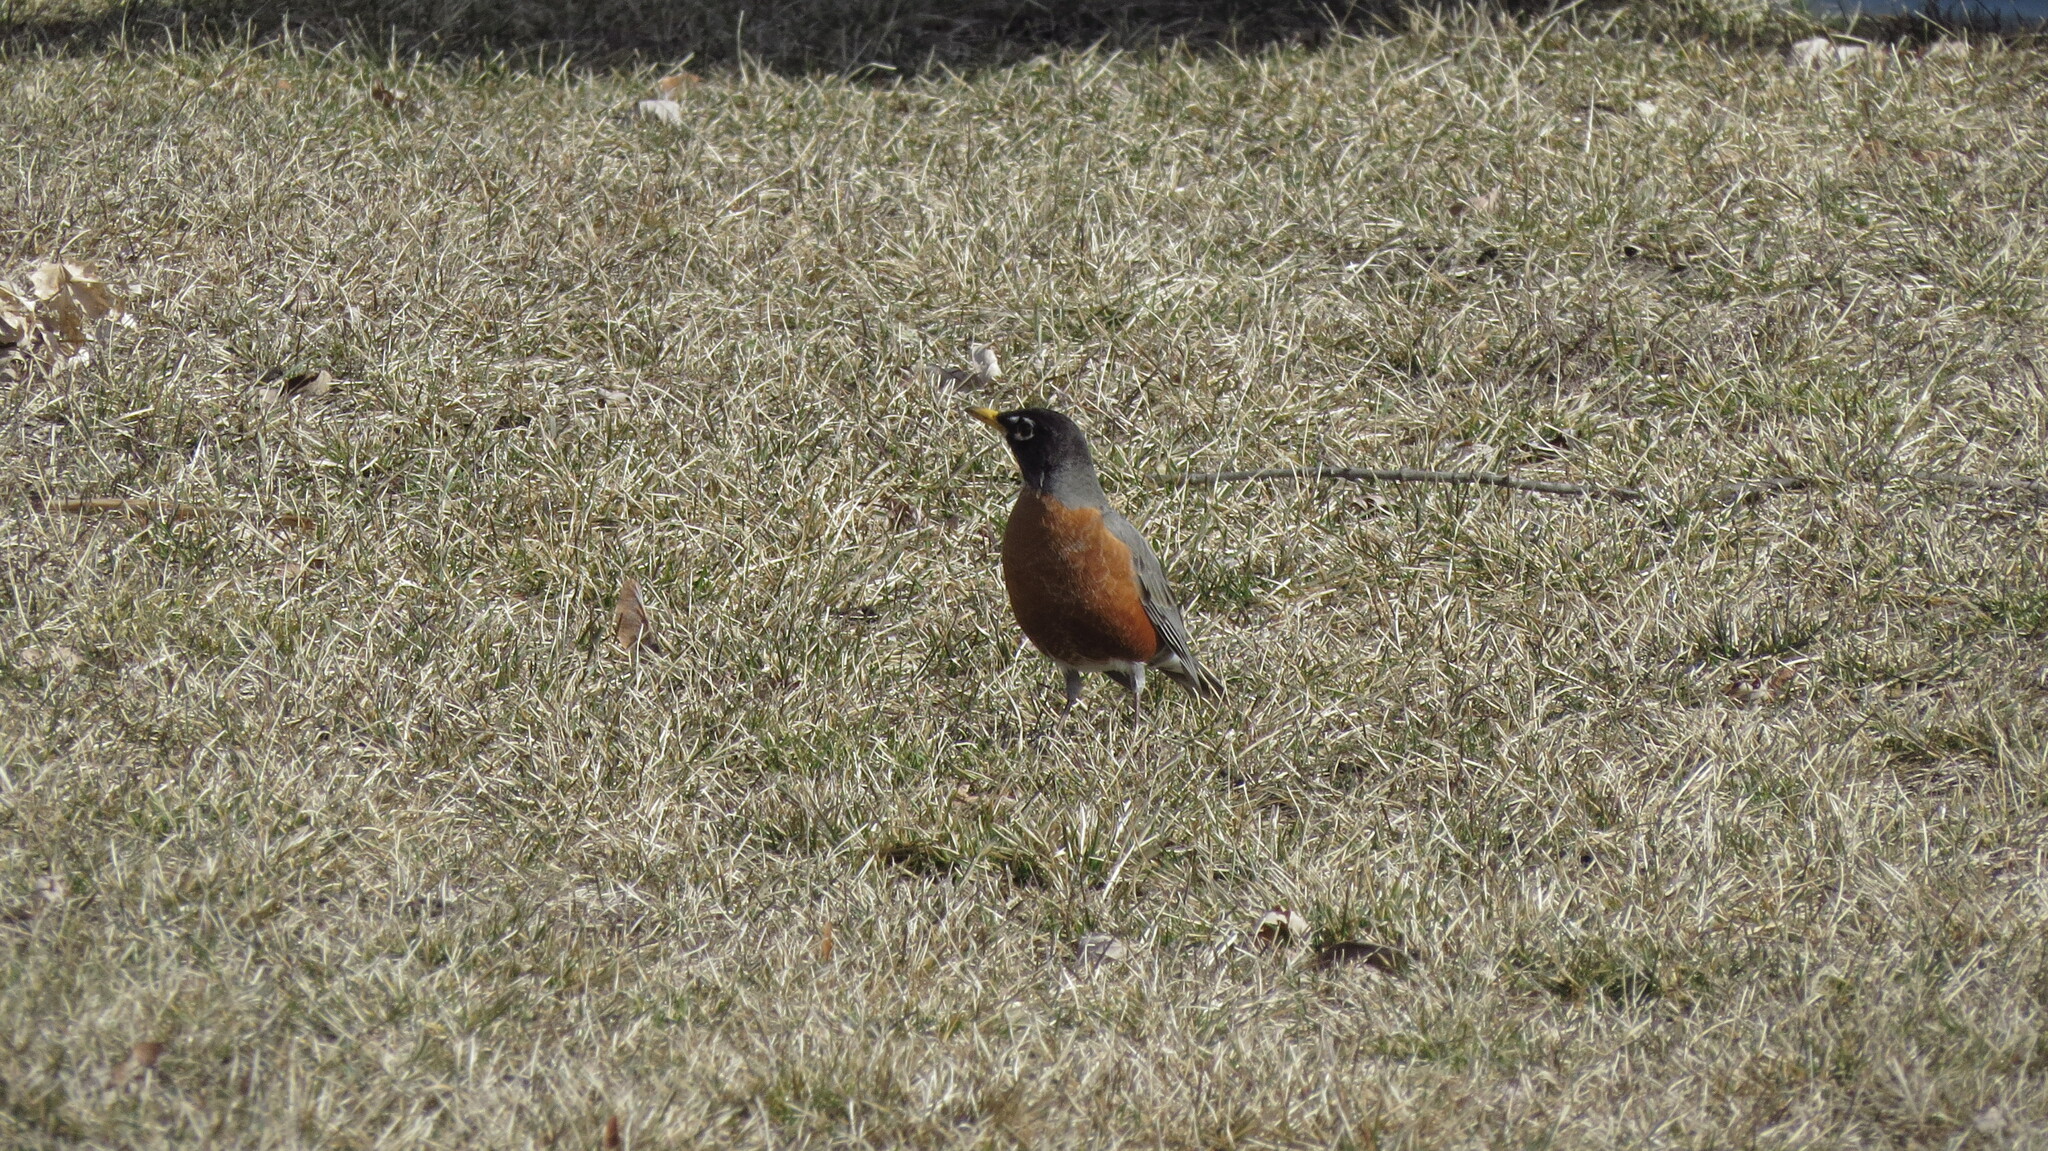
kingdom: Animalia
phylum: Chordata
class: Aves
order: Passeriformes
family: Turdidae
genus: Turdus
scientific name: Turdus migratorius
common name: American robin
